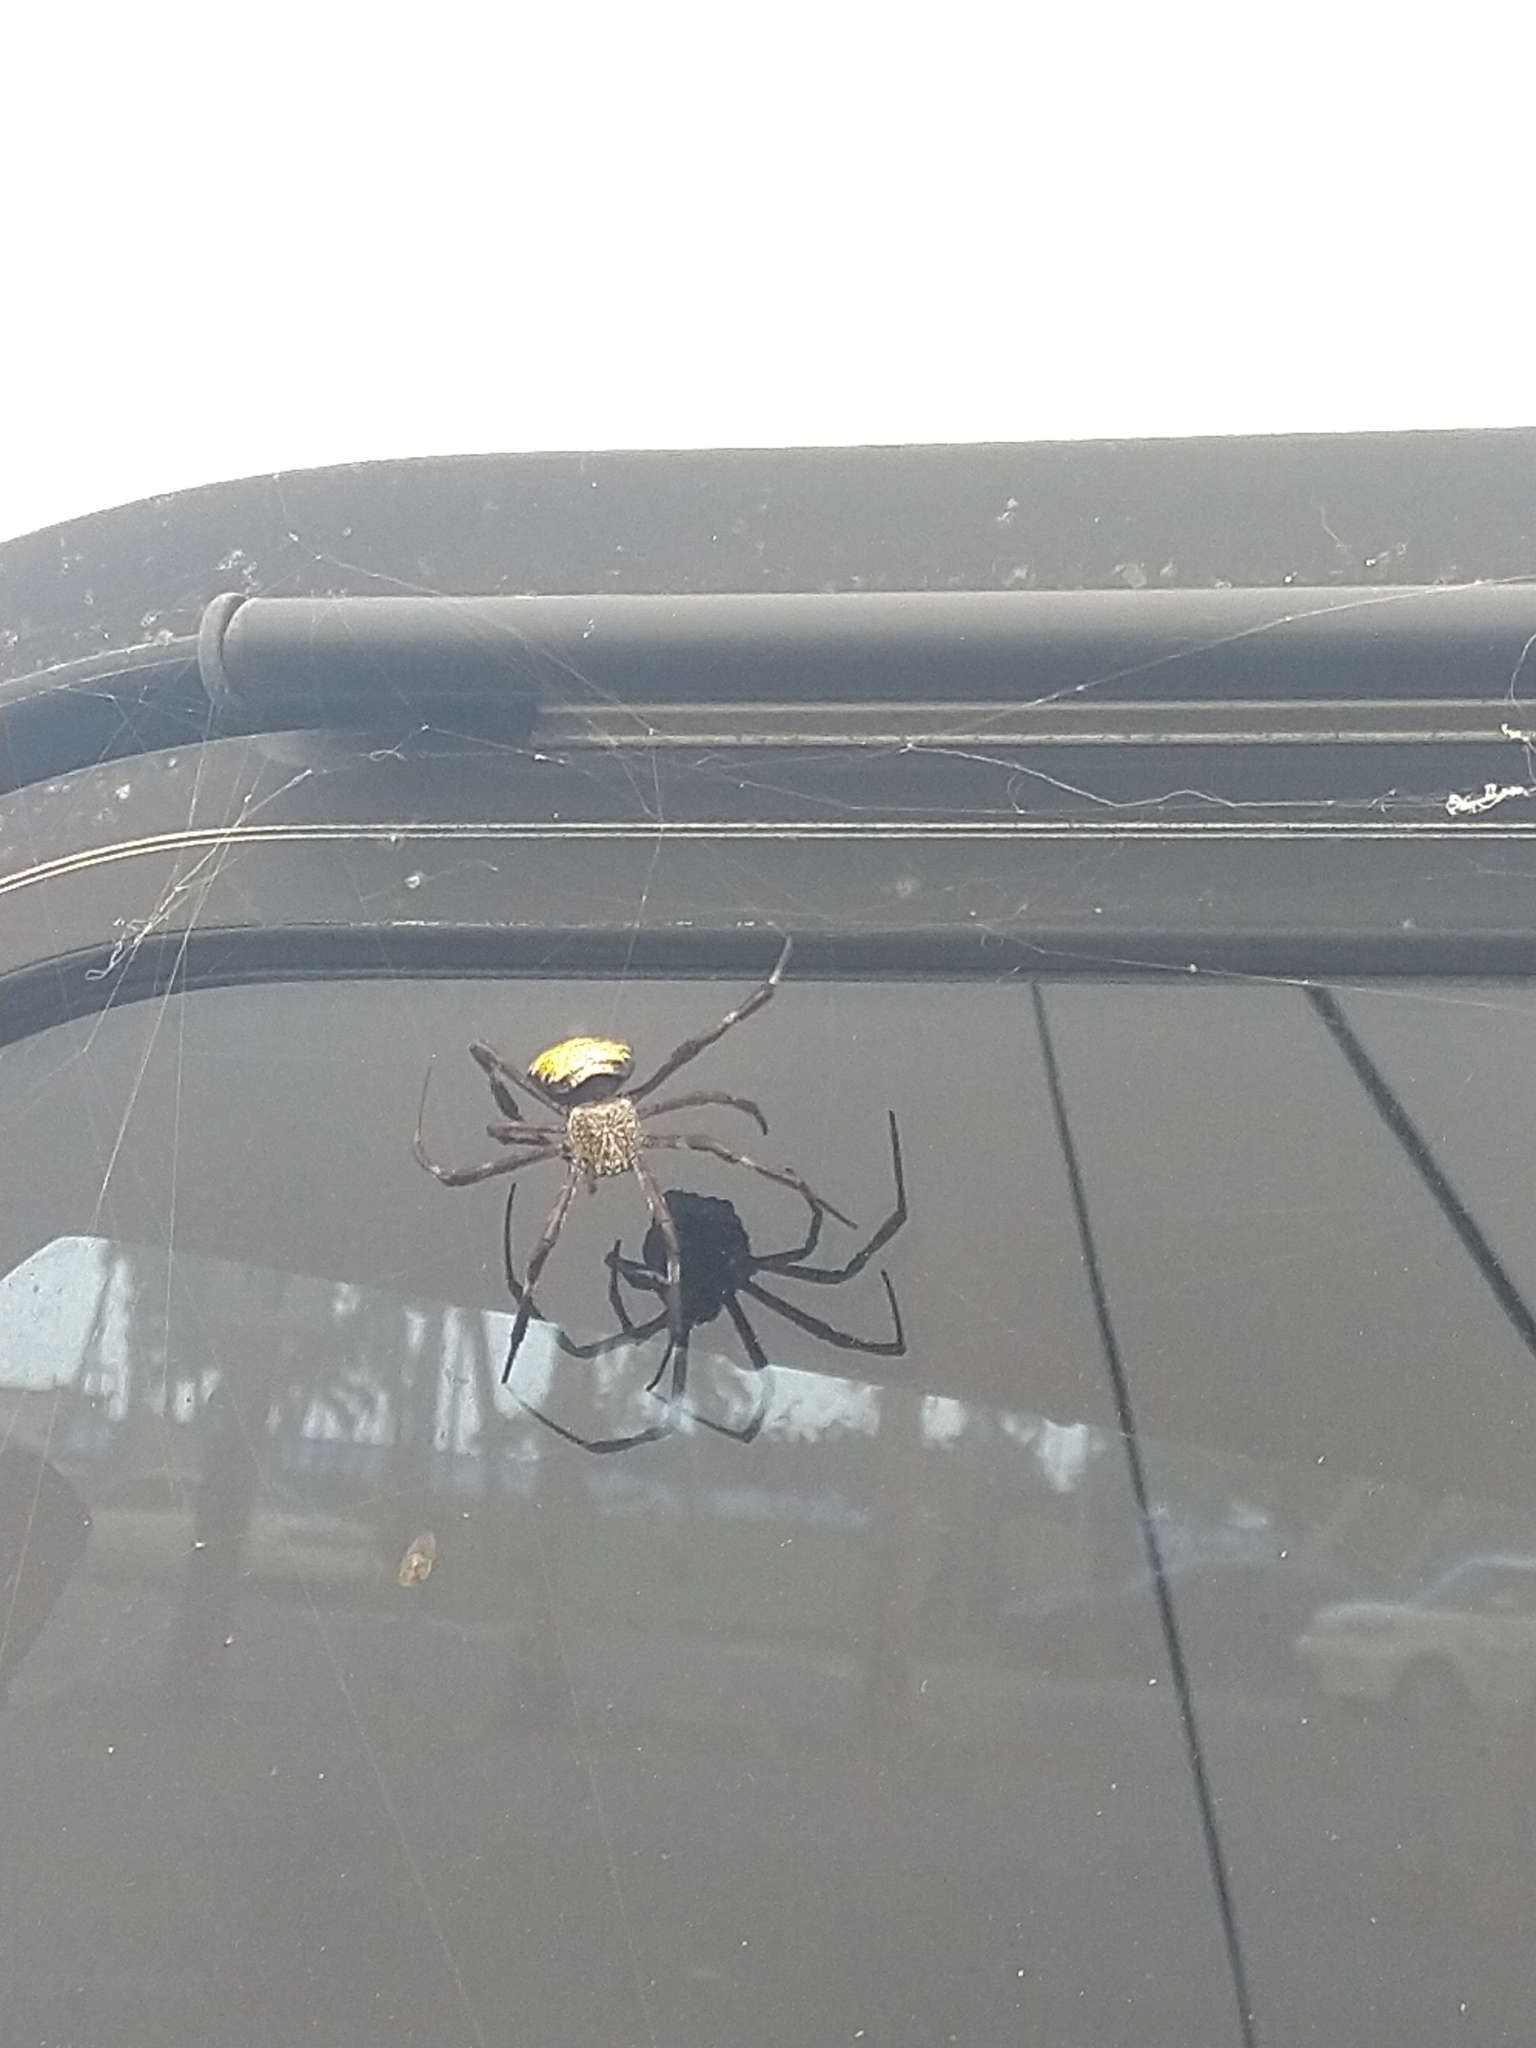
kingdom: Animalia
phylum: Arthropoda
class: Arachnida
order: Araneae
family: Araneidae
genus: Argiope
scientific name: Argiope appensa
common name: Garden spider
